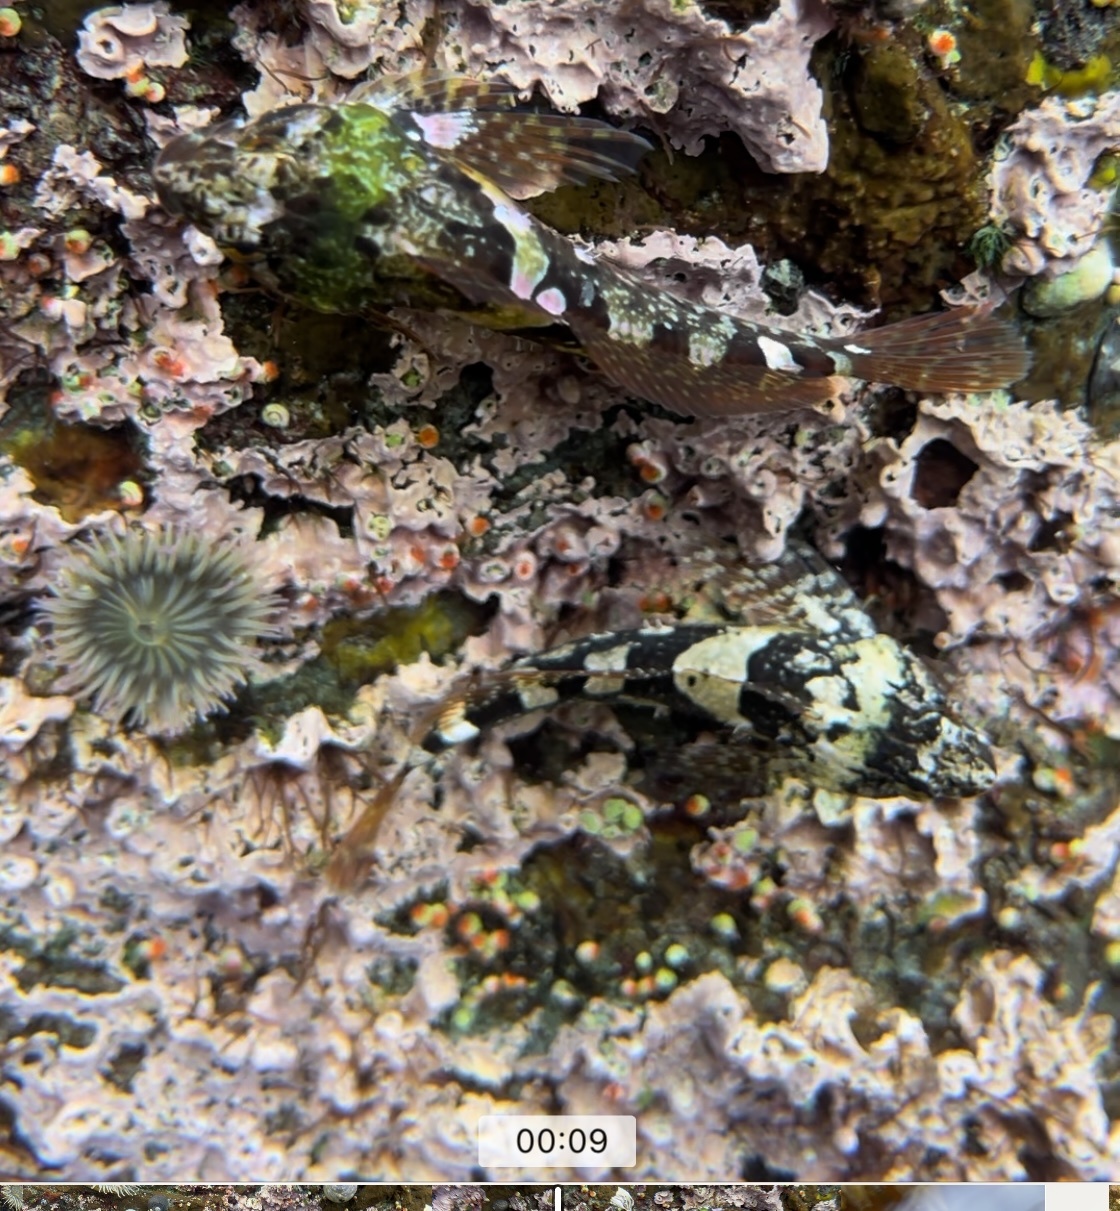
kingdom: Animalia
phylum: Chordata
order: Scorpaeniformes
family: Cottidae
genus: Oligocottus
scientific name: Oligocottus maculosus
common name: Tidepool sculpin
